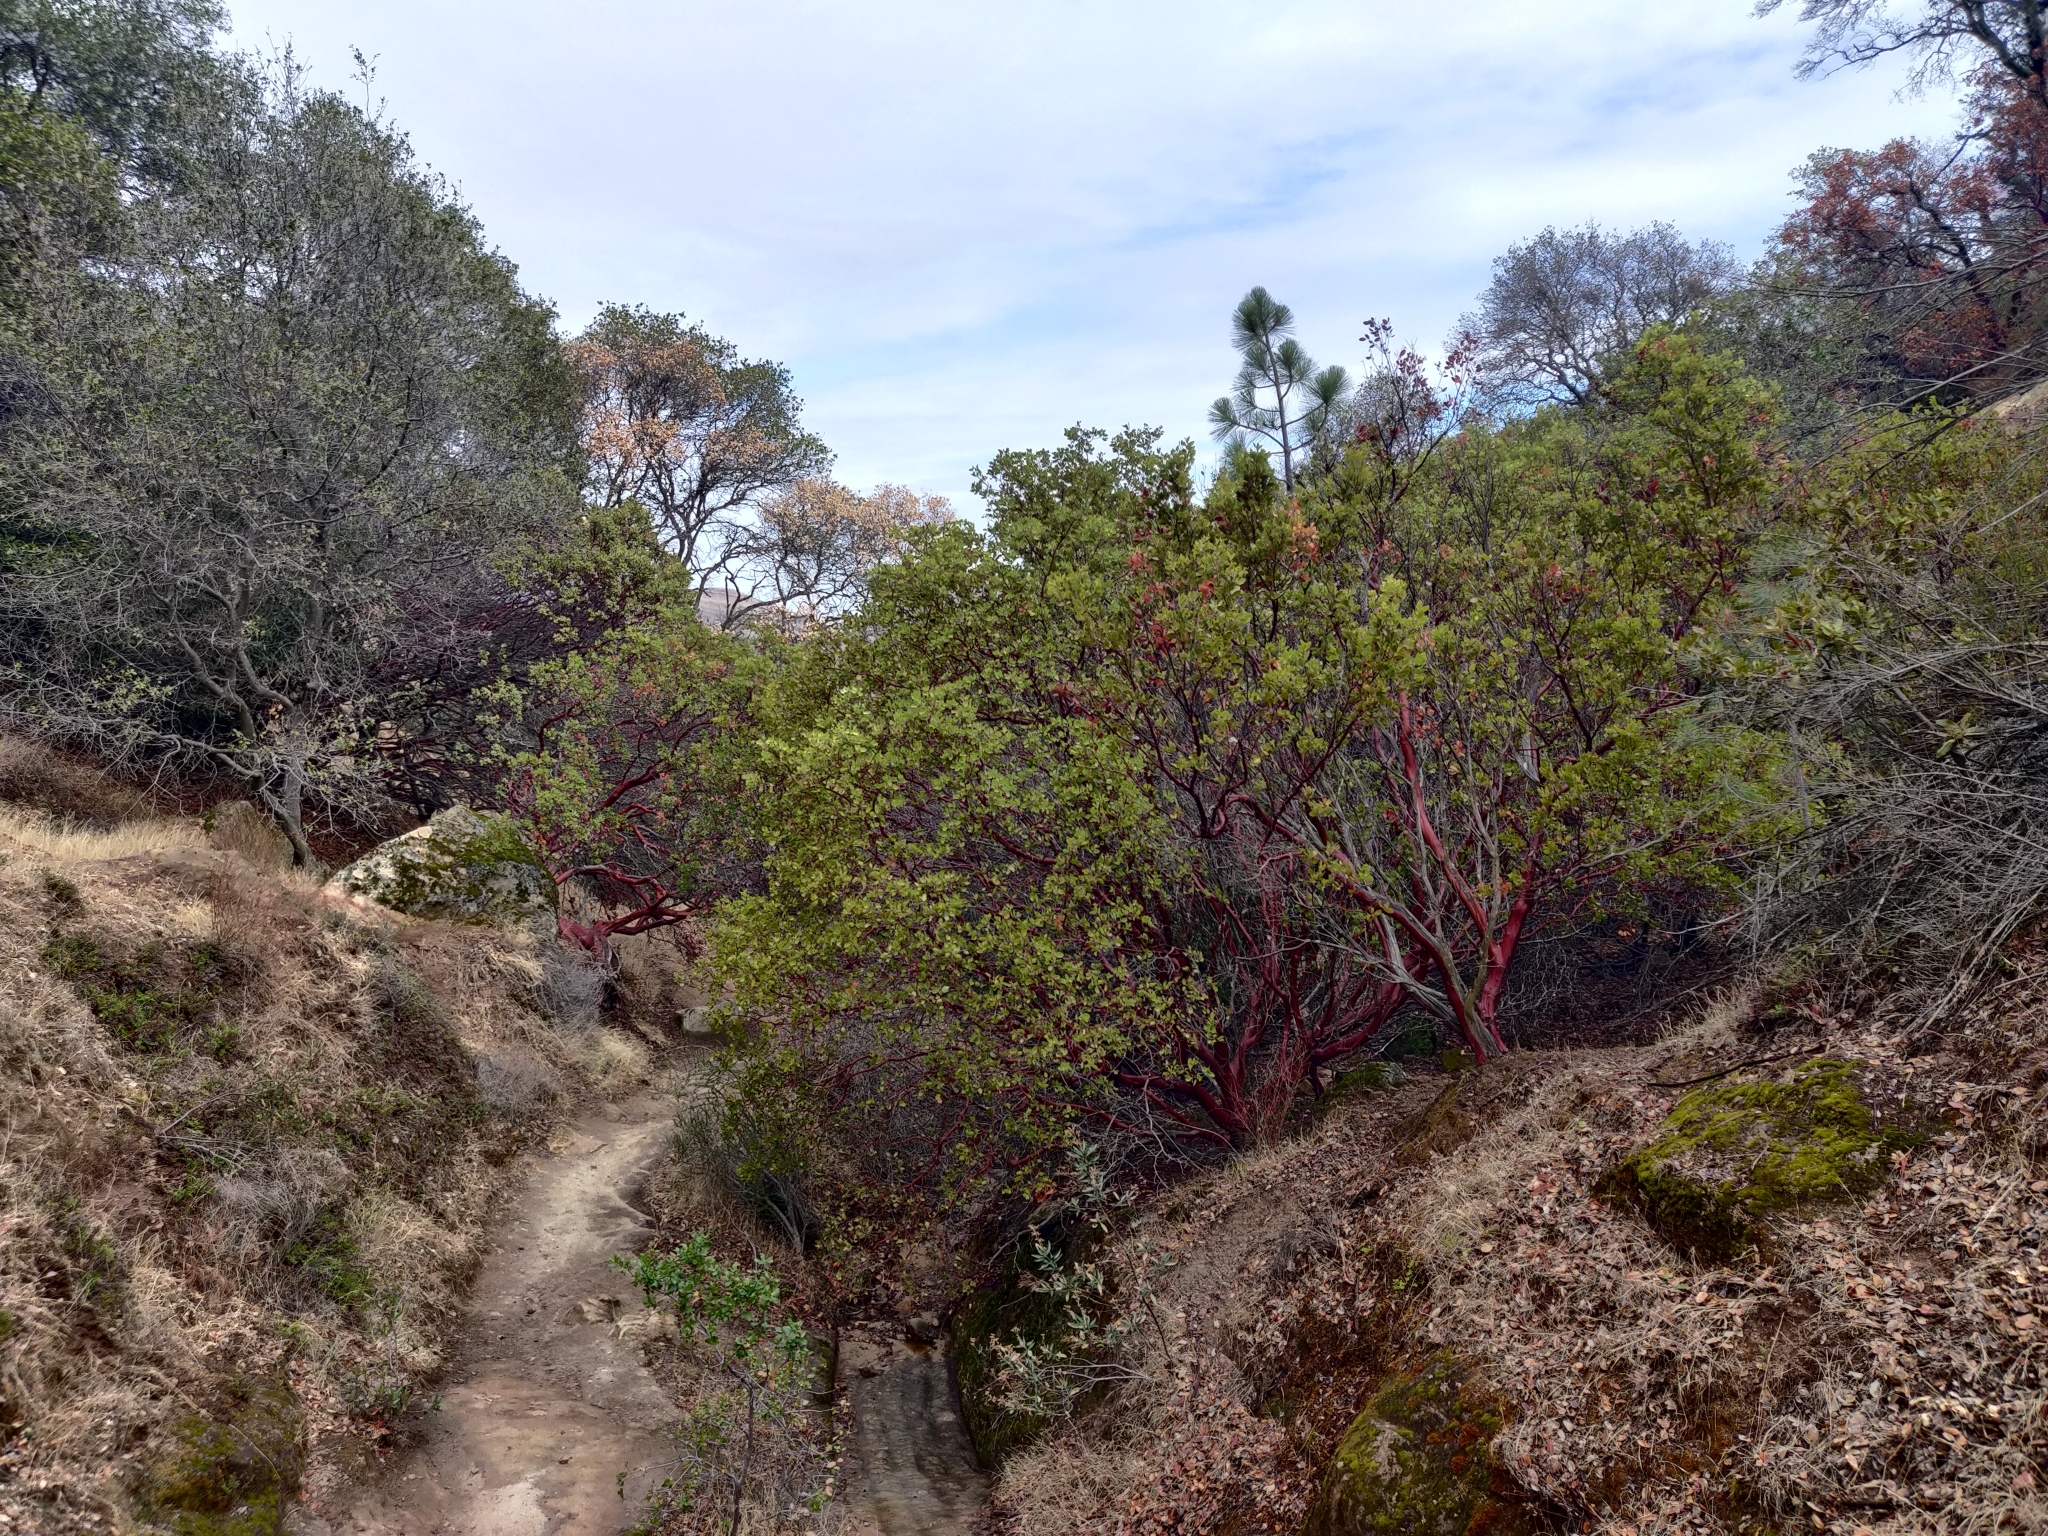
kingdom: Plantae
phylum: Tracheophyta
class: Magnoliopsida
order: Ericales
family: Ericaceae
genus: Arctostaphylos
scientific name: Arctostaphylos manzanita
